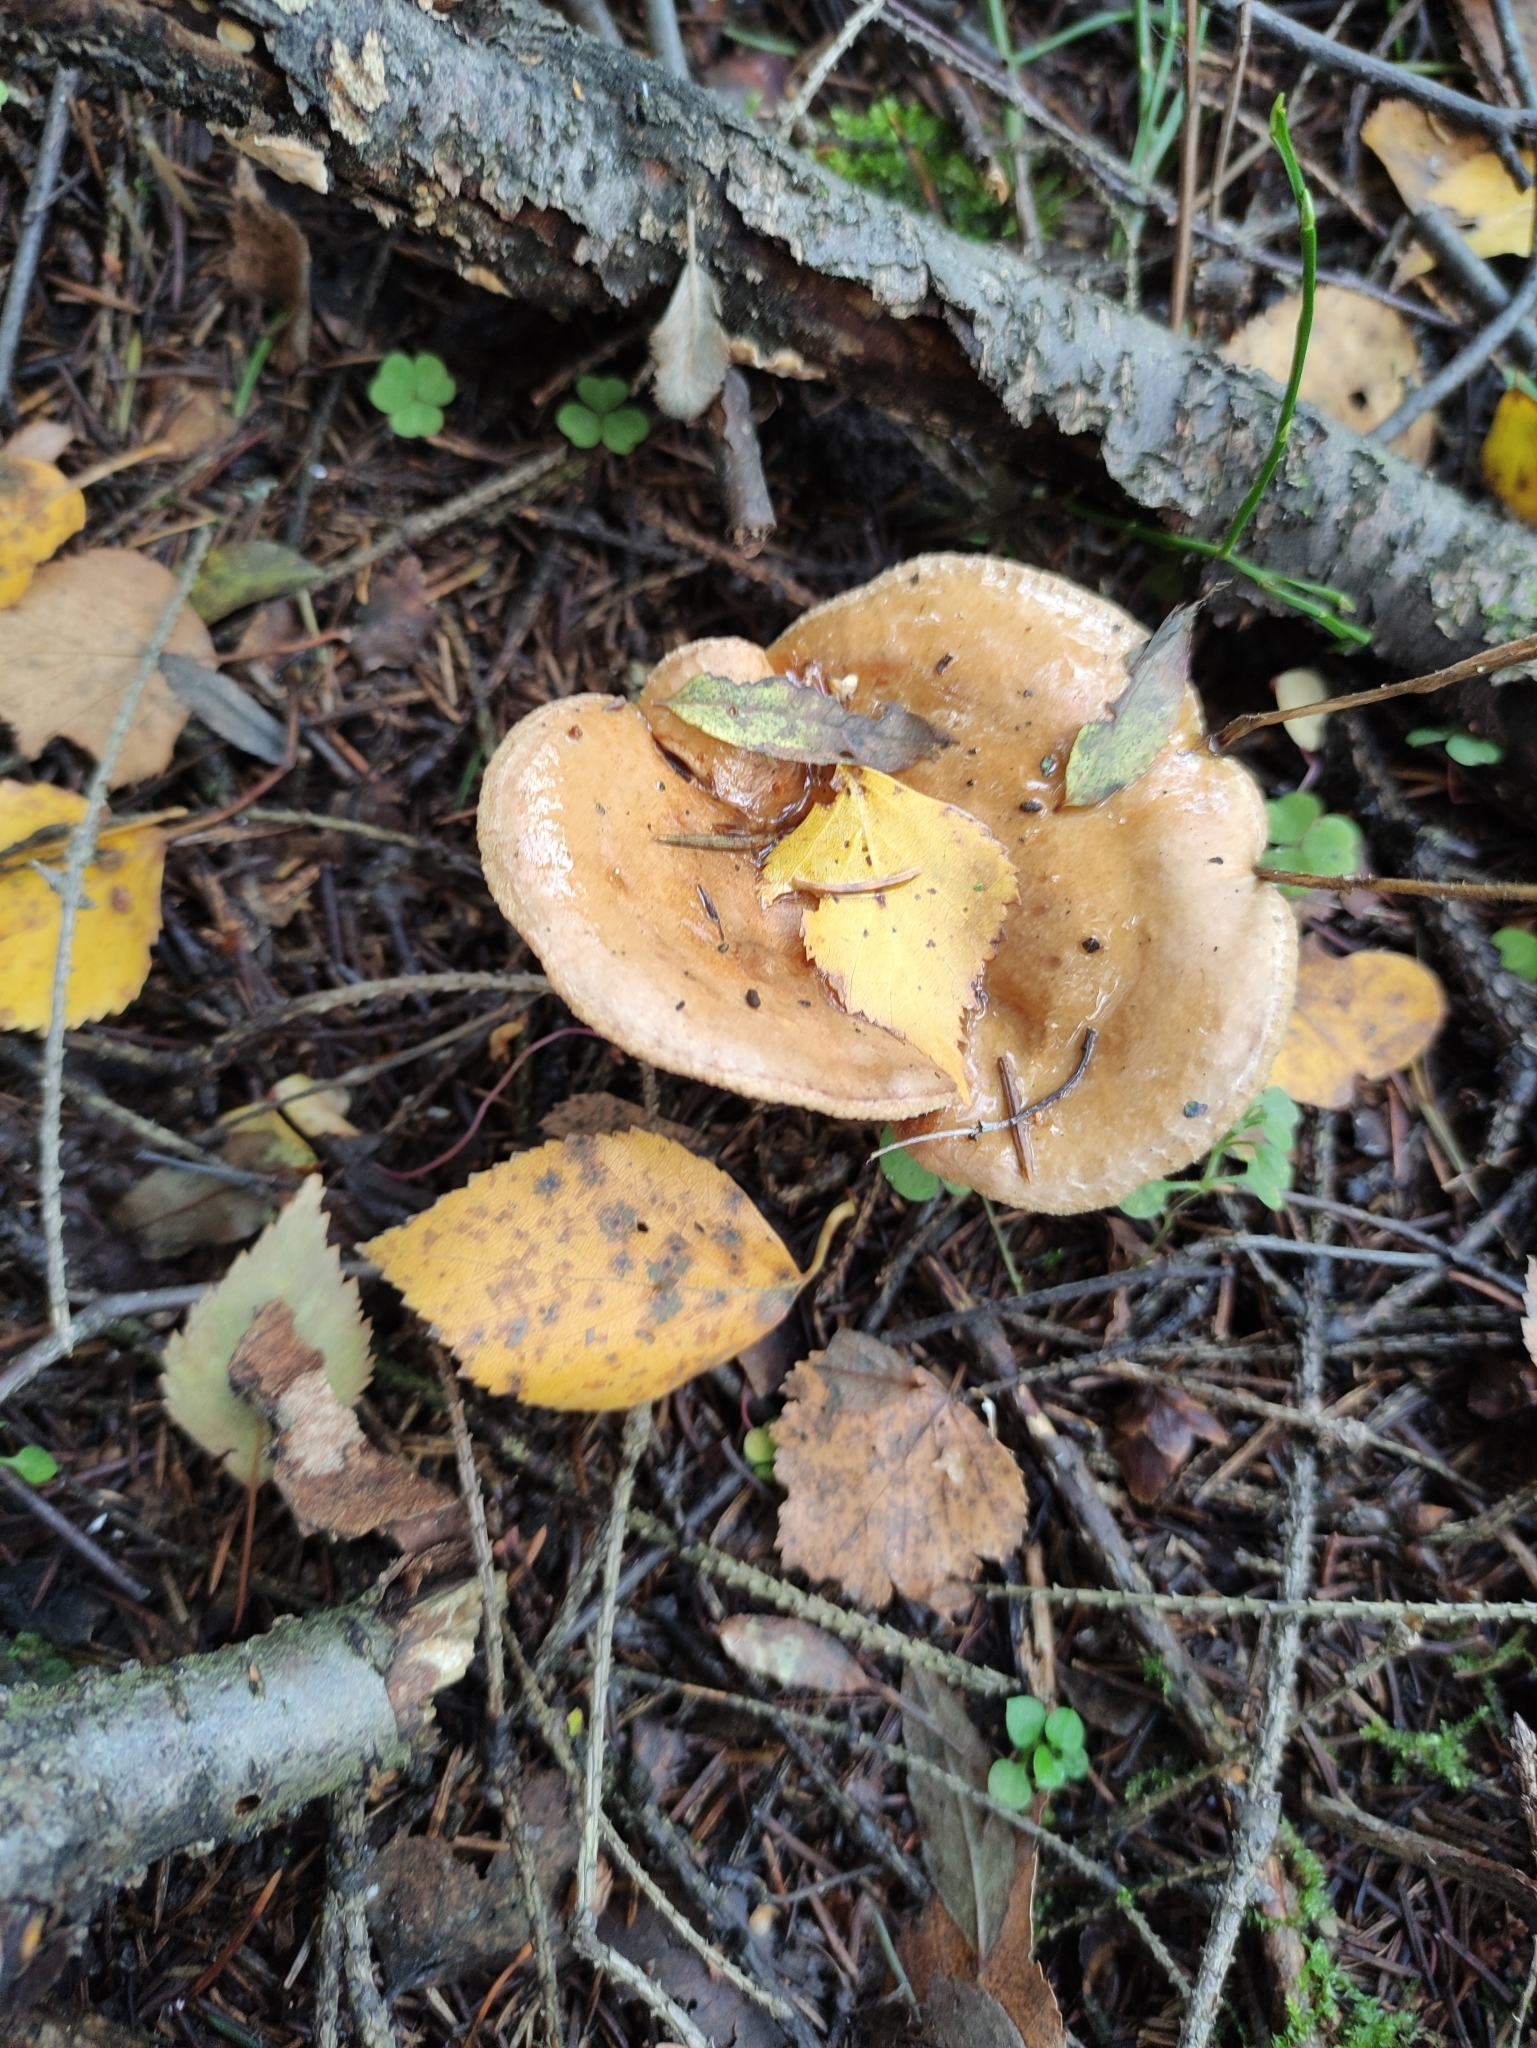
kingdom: Fungi
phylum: Basidiomycota
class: Agaricomycetes
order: Boletales
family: Paxillaceae
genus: Paxillus
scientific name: Paxillus involutus
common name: Brown roll rim
